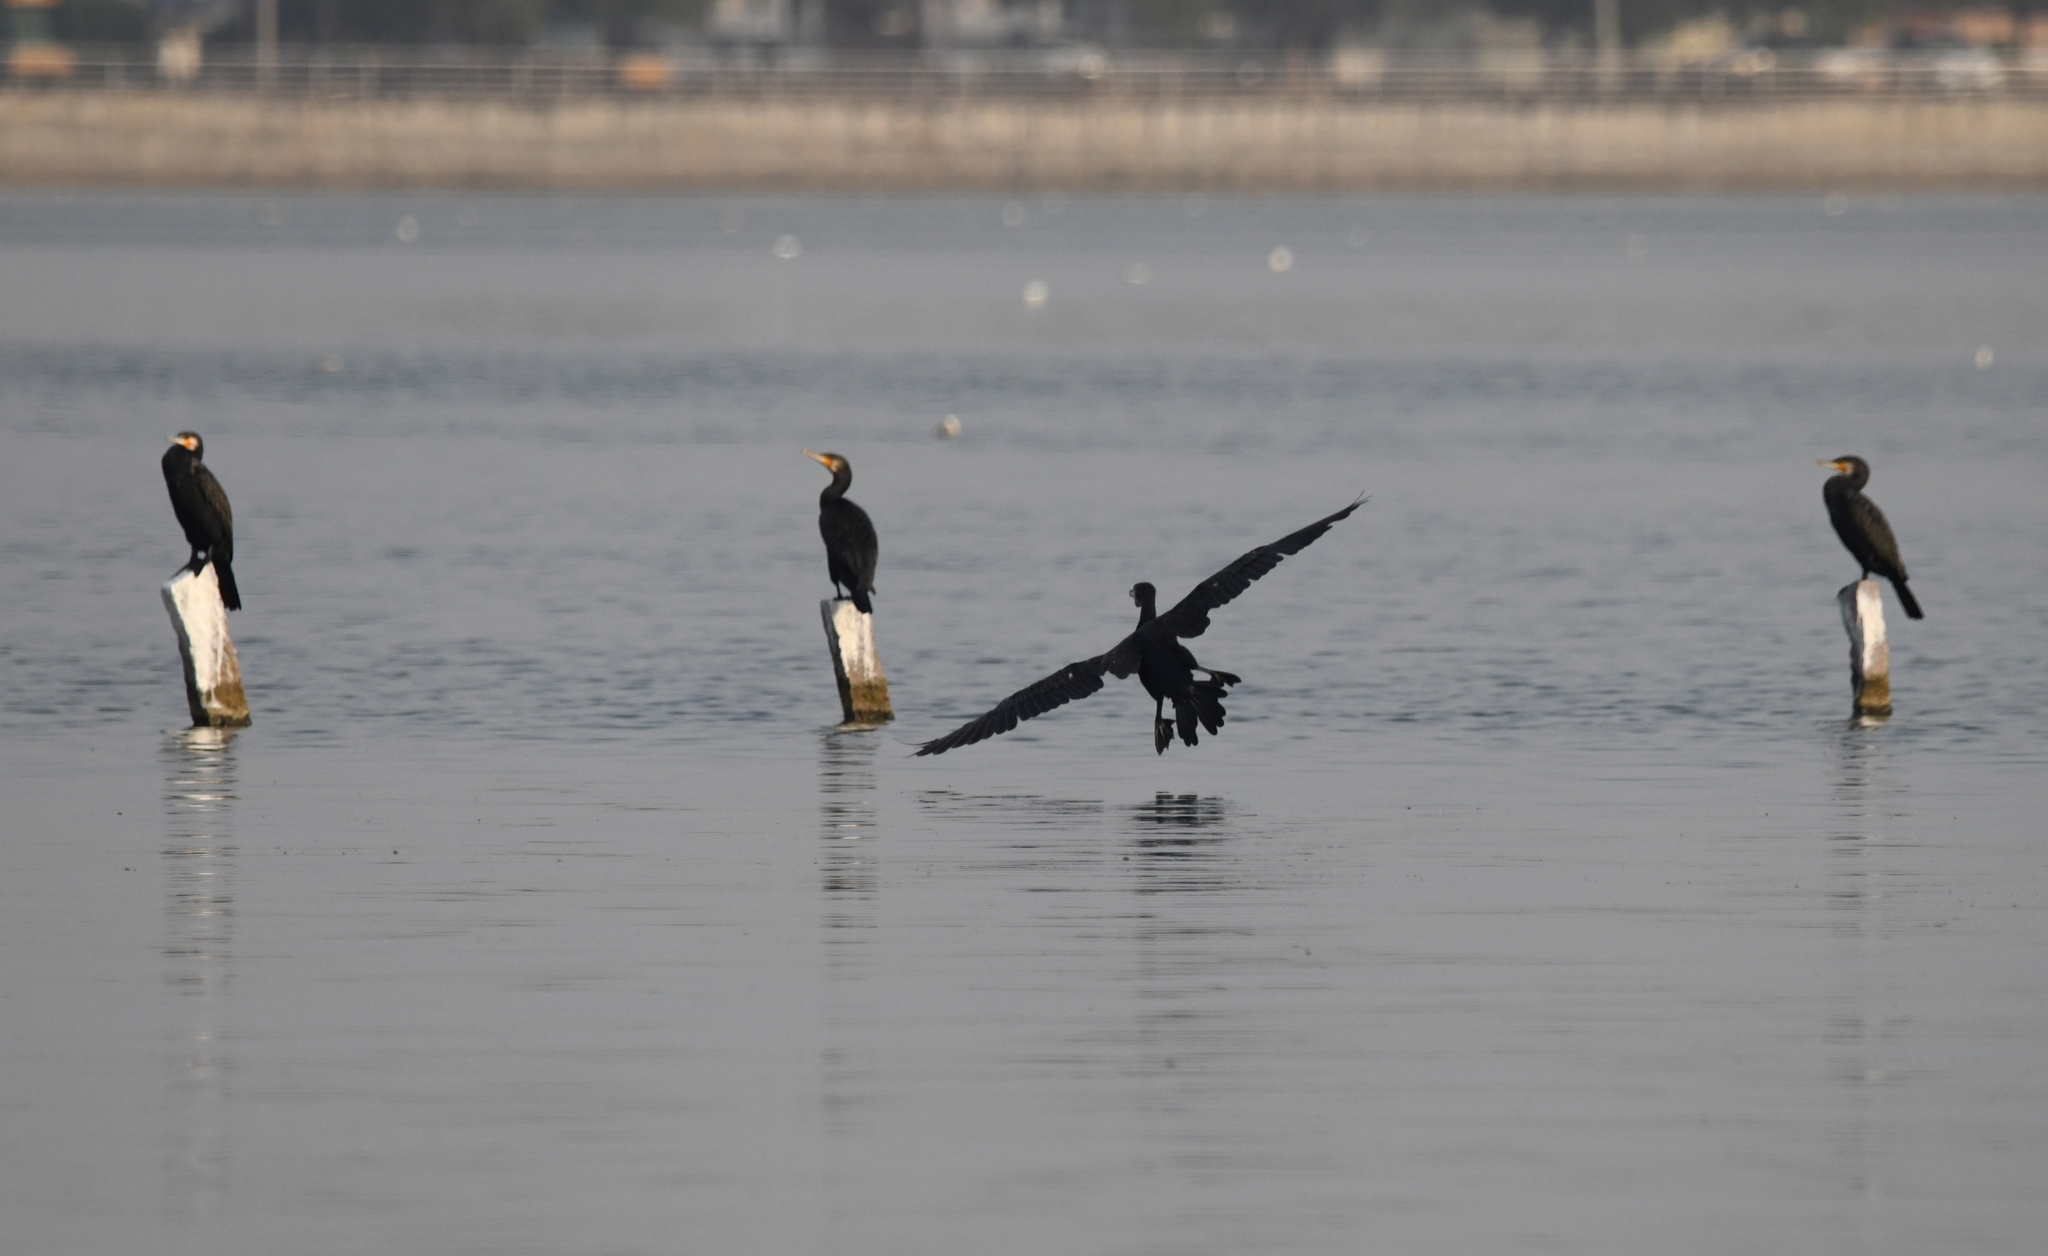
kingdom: Animalia
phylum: Chordata
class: Aves
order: Suliformes
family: Phalacrocoracidae
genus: Phalacrocorax
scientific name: Phalacrocorax carbo
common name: Great cormorant
